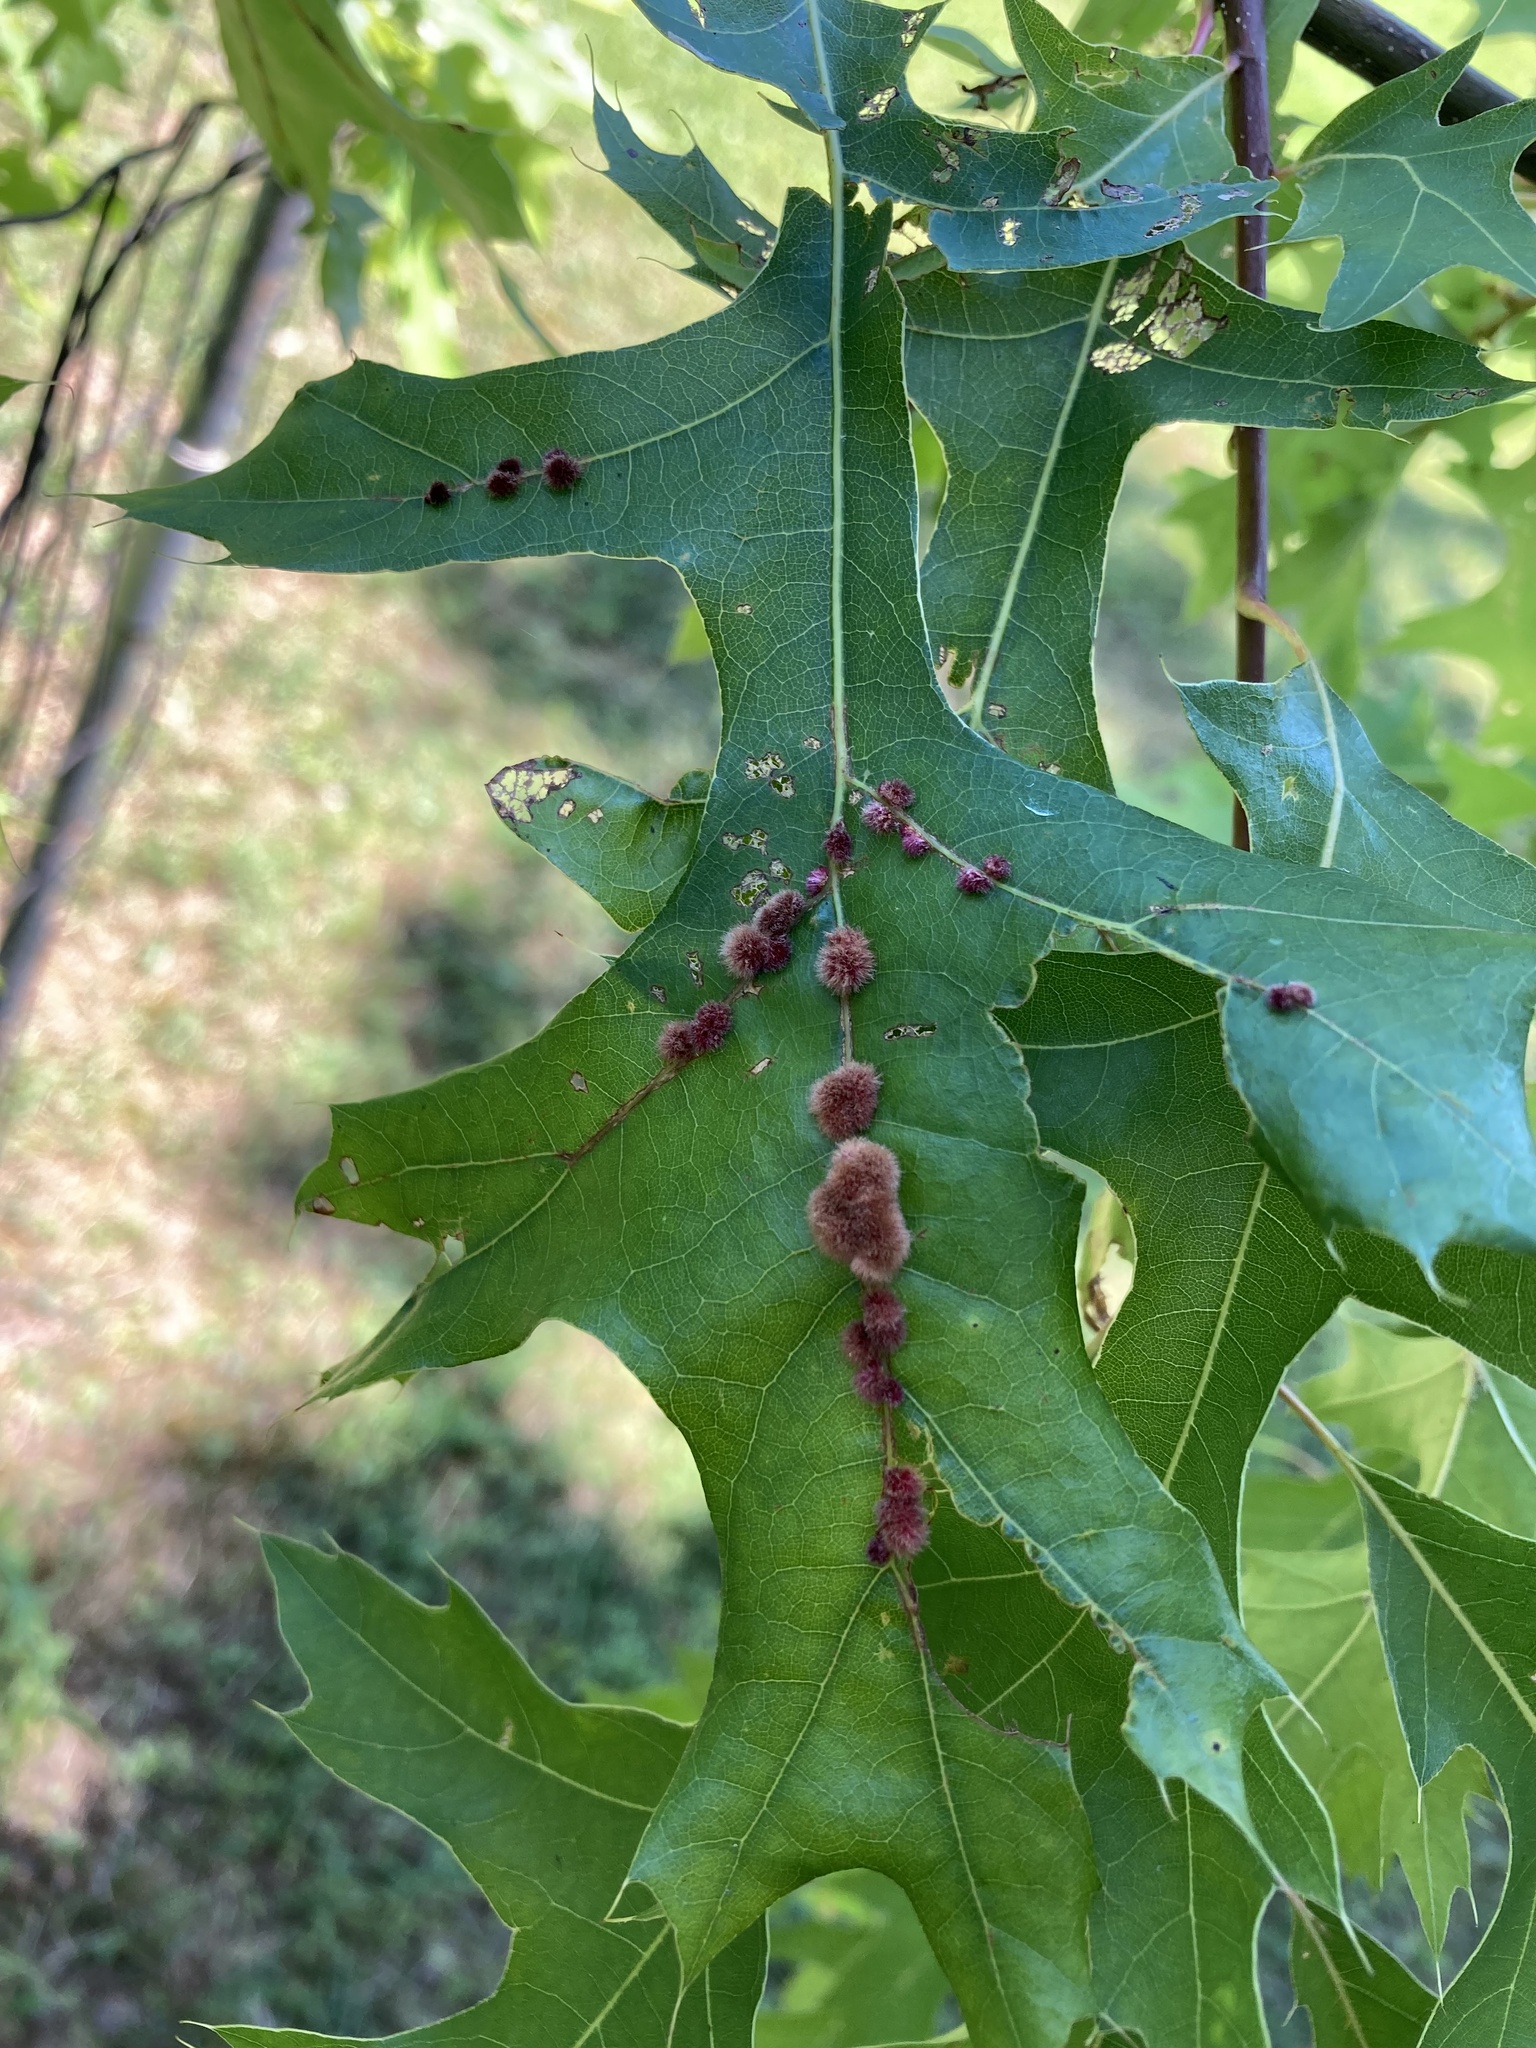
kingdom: Animalia
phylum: Arthropoda
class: Insecta
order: Hymenoptera
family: Cynipidae
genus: Callirhytis
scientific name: Callirhytis
